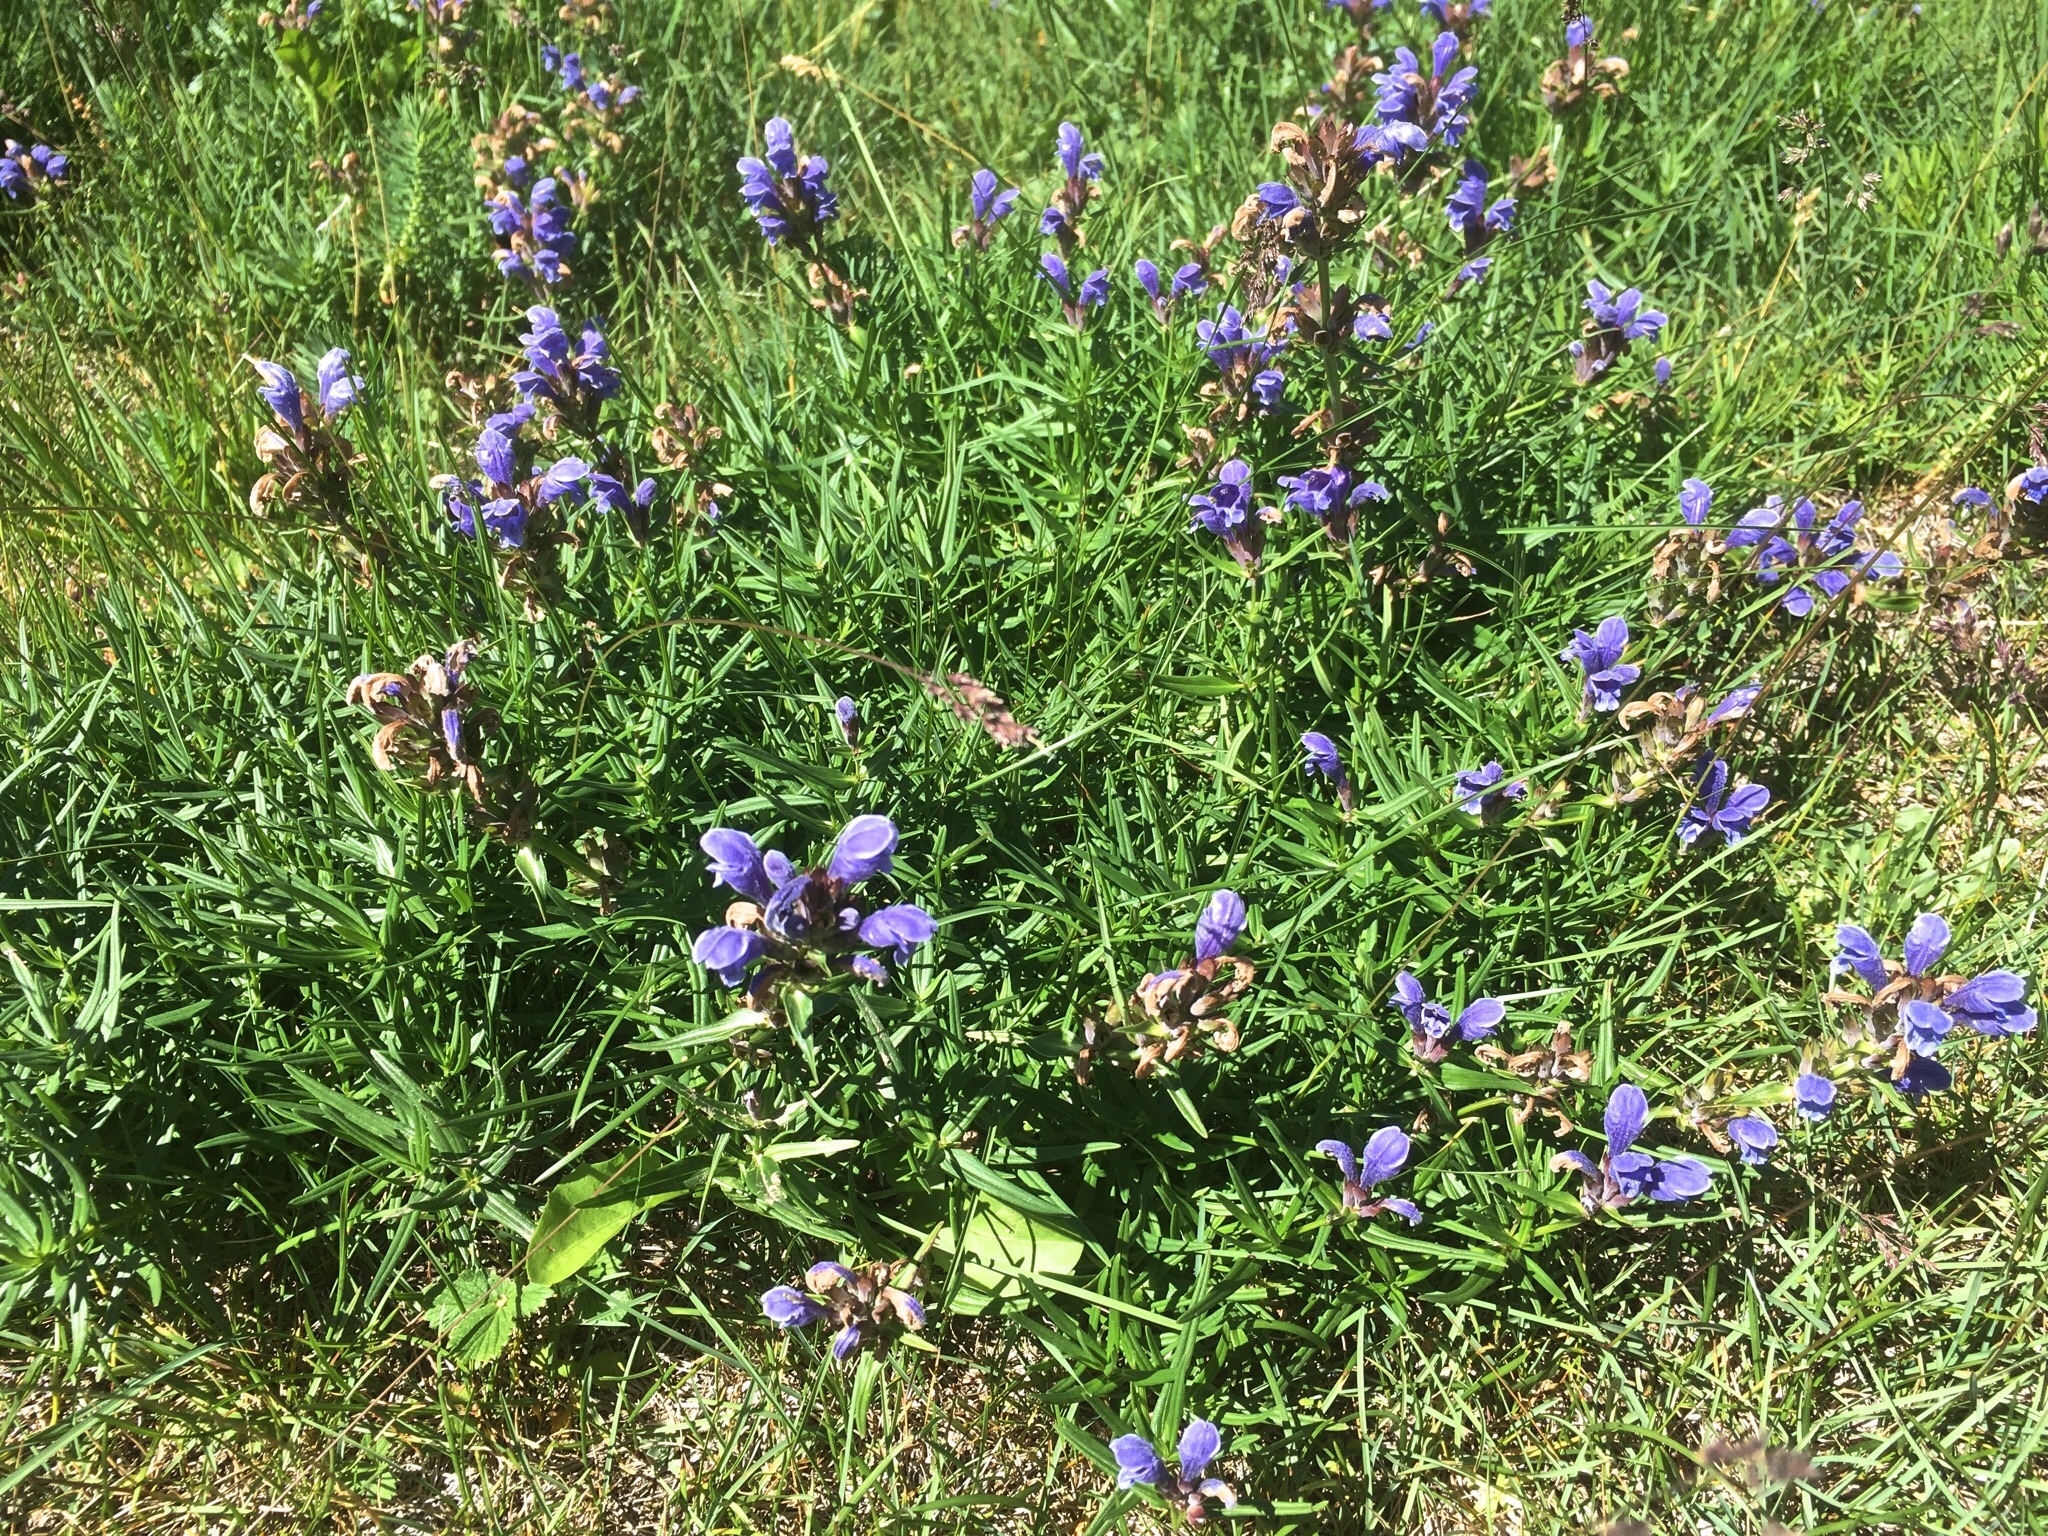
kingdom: Plantae
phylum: Tracheophyta
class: Magnoliopsida
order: Lamiales
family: Lamiaceae
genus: Dracocephalum
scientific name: Dracocephalum ruyschiana
